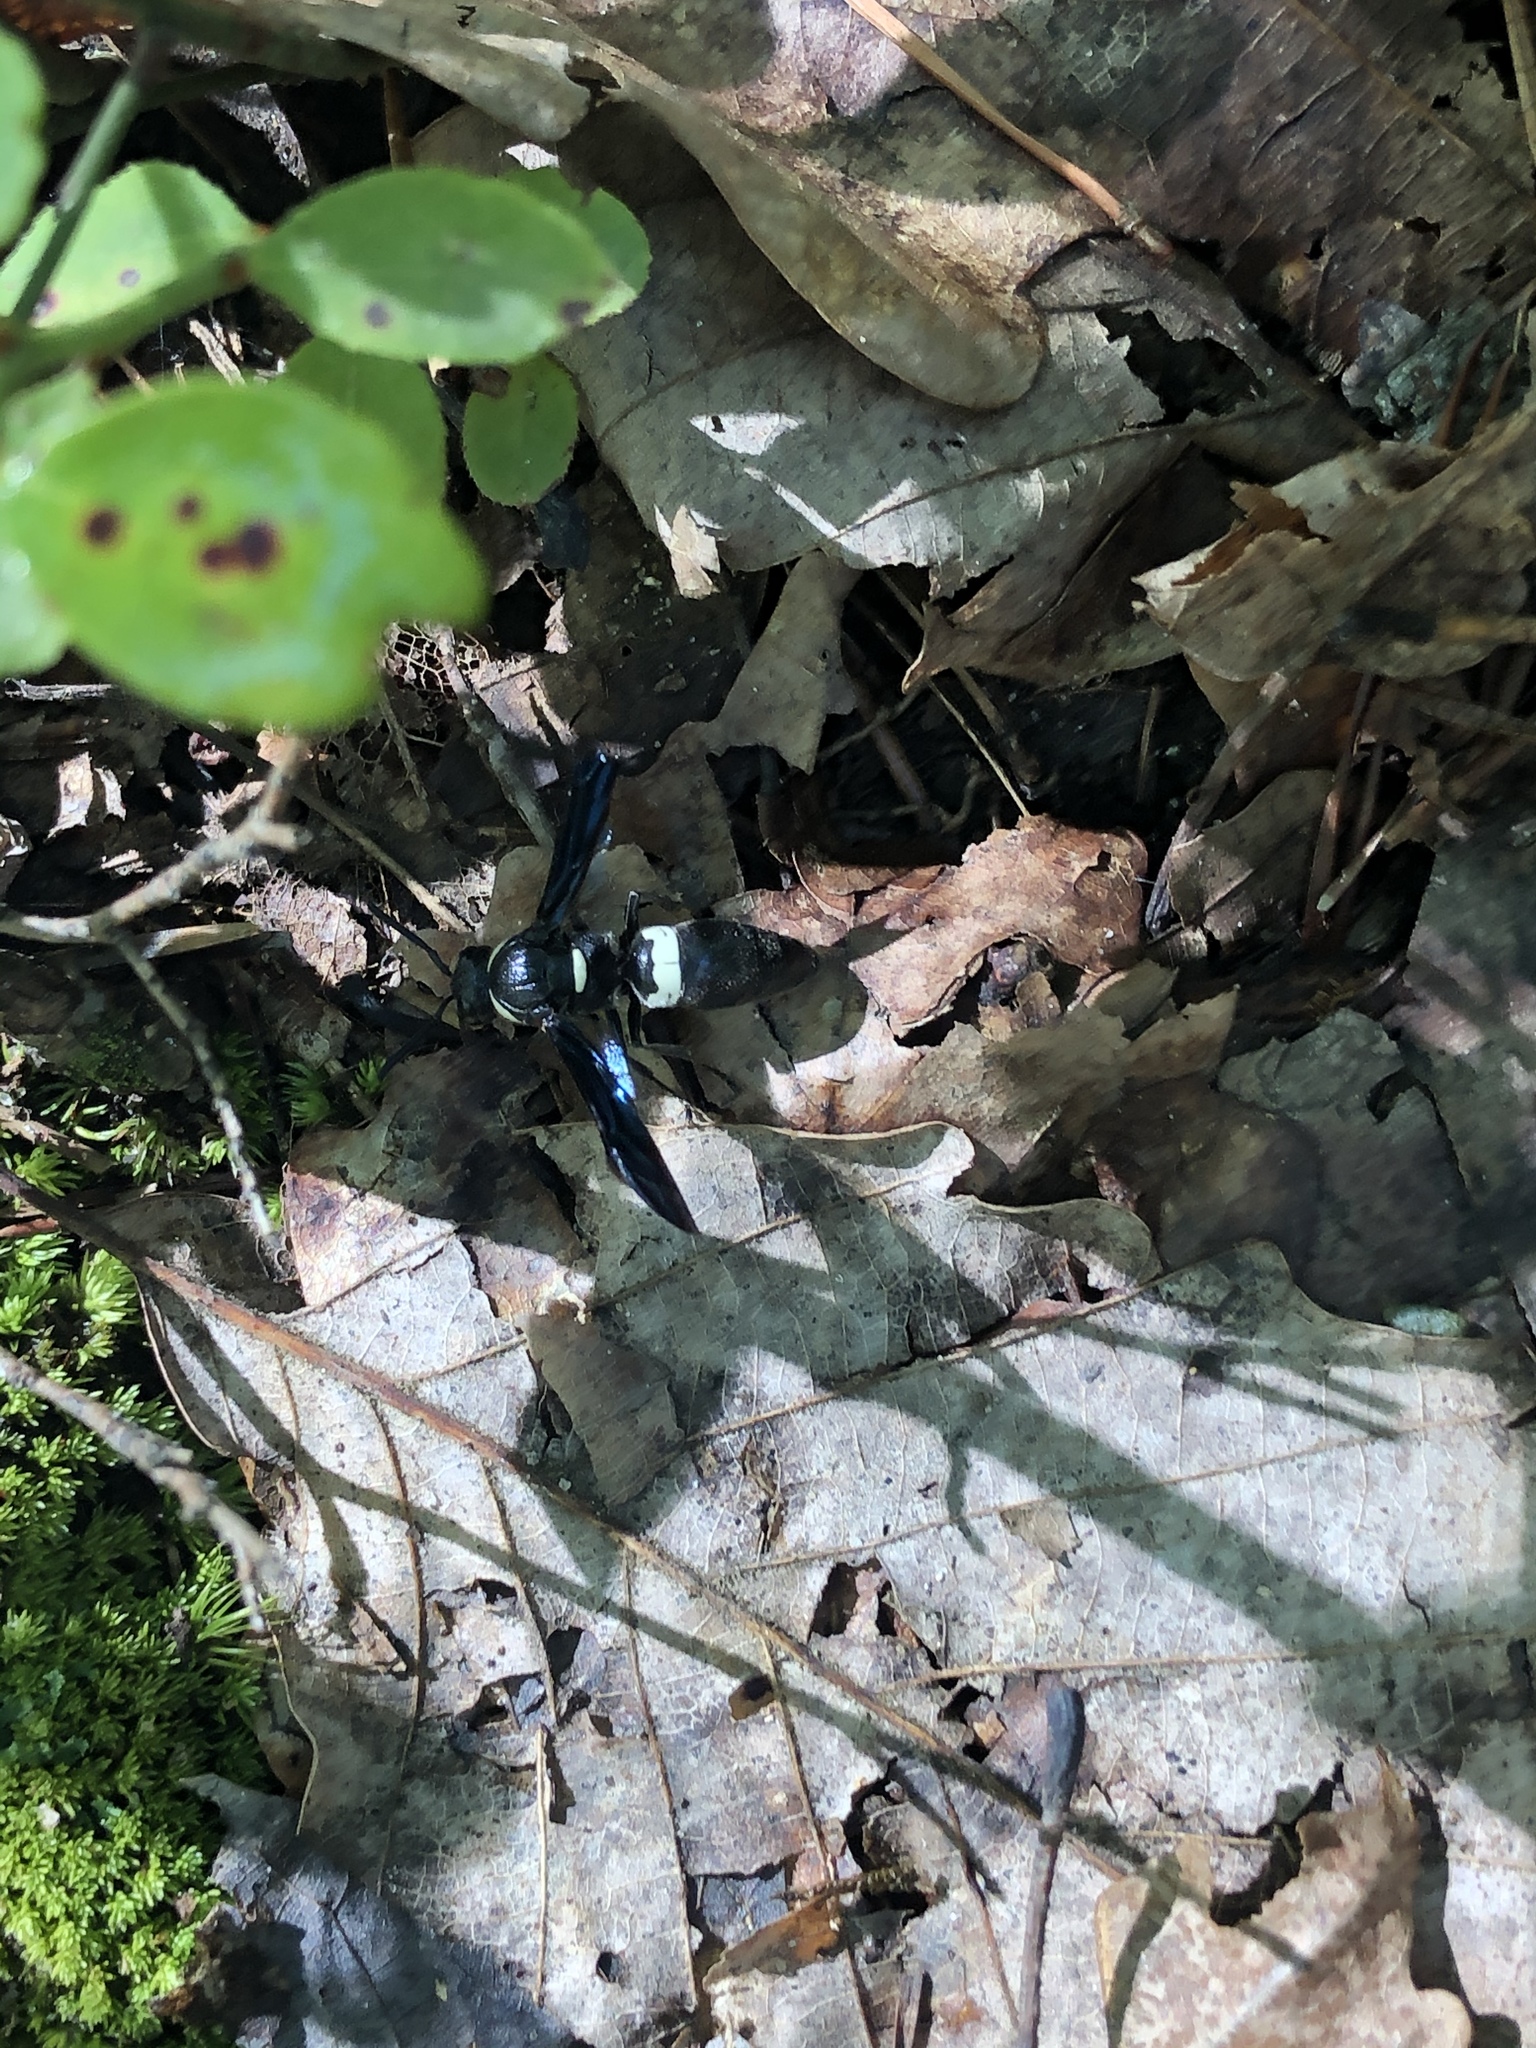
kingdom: Animalia
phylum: Arthropoda
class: Insecta
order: Hymenoptera
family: Eumenidae
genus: Monobia
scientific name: Monobia quadridens
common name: Four-toothed mason wasp
